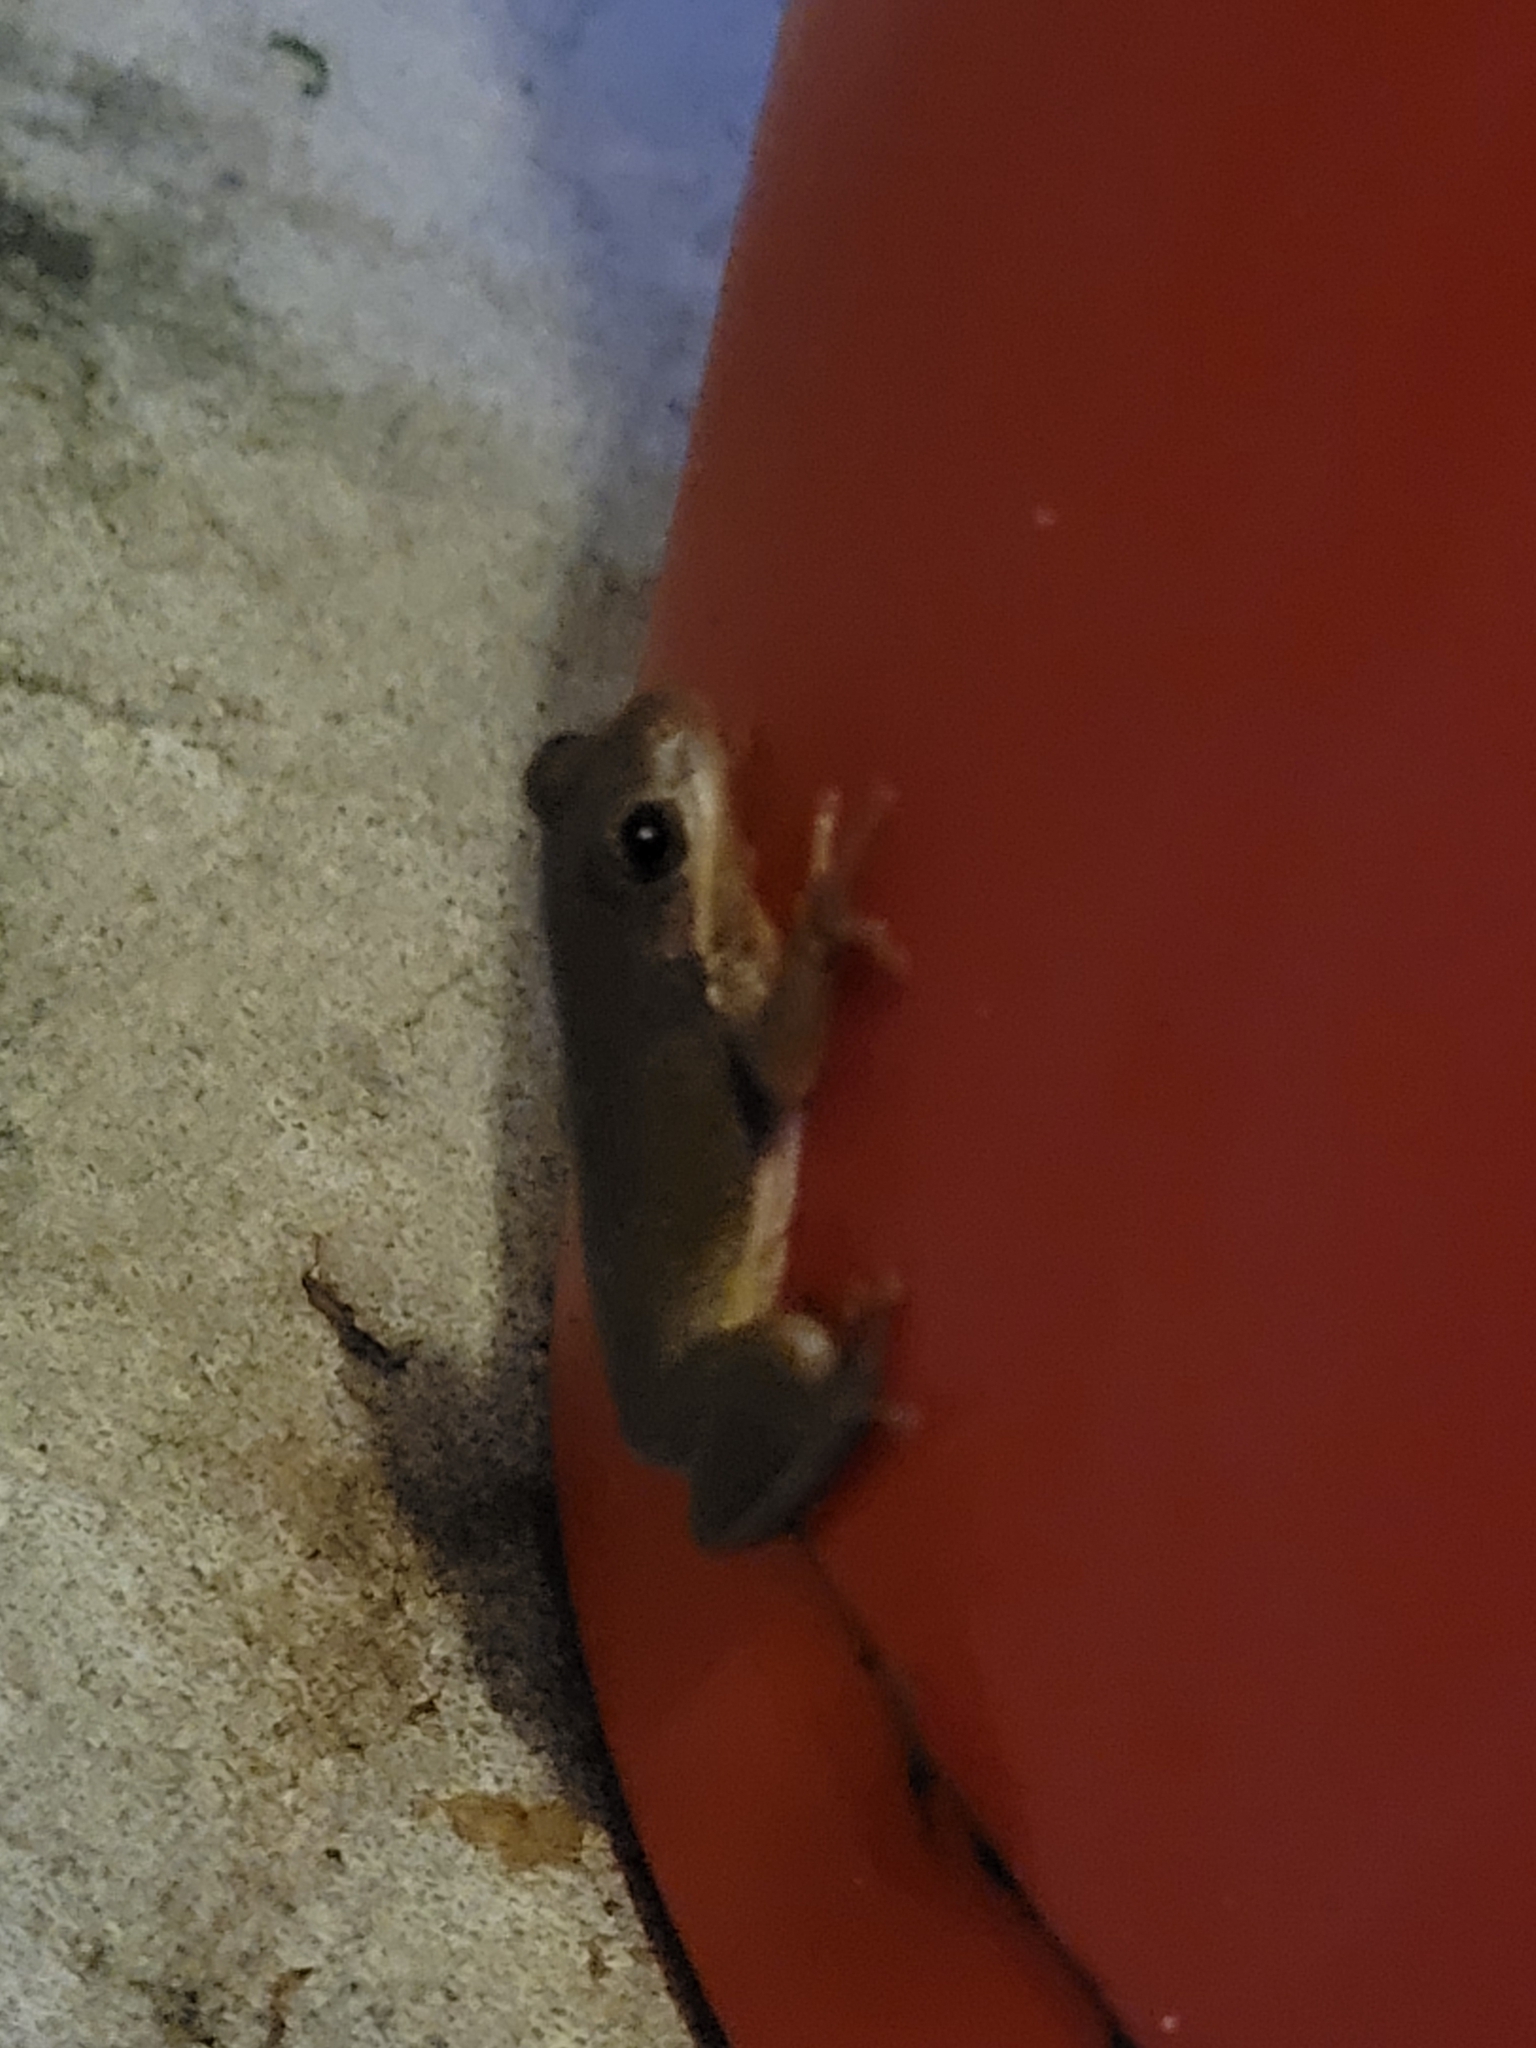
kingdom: Animalia
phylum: Chordata
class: Amphibia
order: Anura
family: Hylidae
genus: Dryophytes
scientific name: Dryophytes squirellus
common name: Squirrel treefrog
